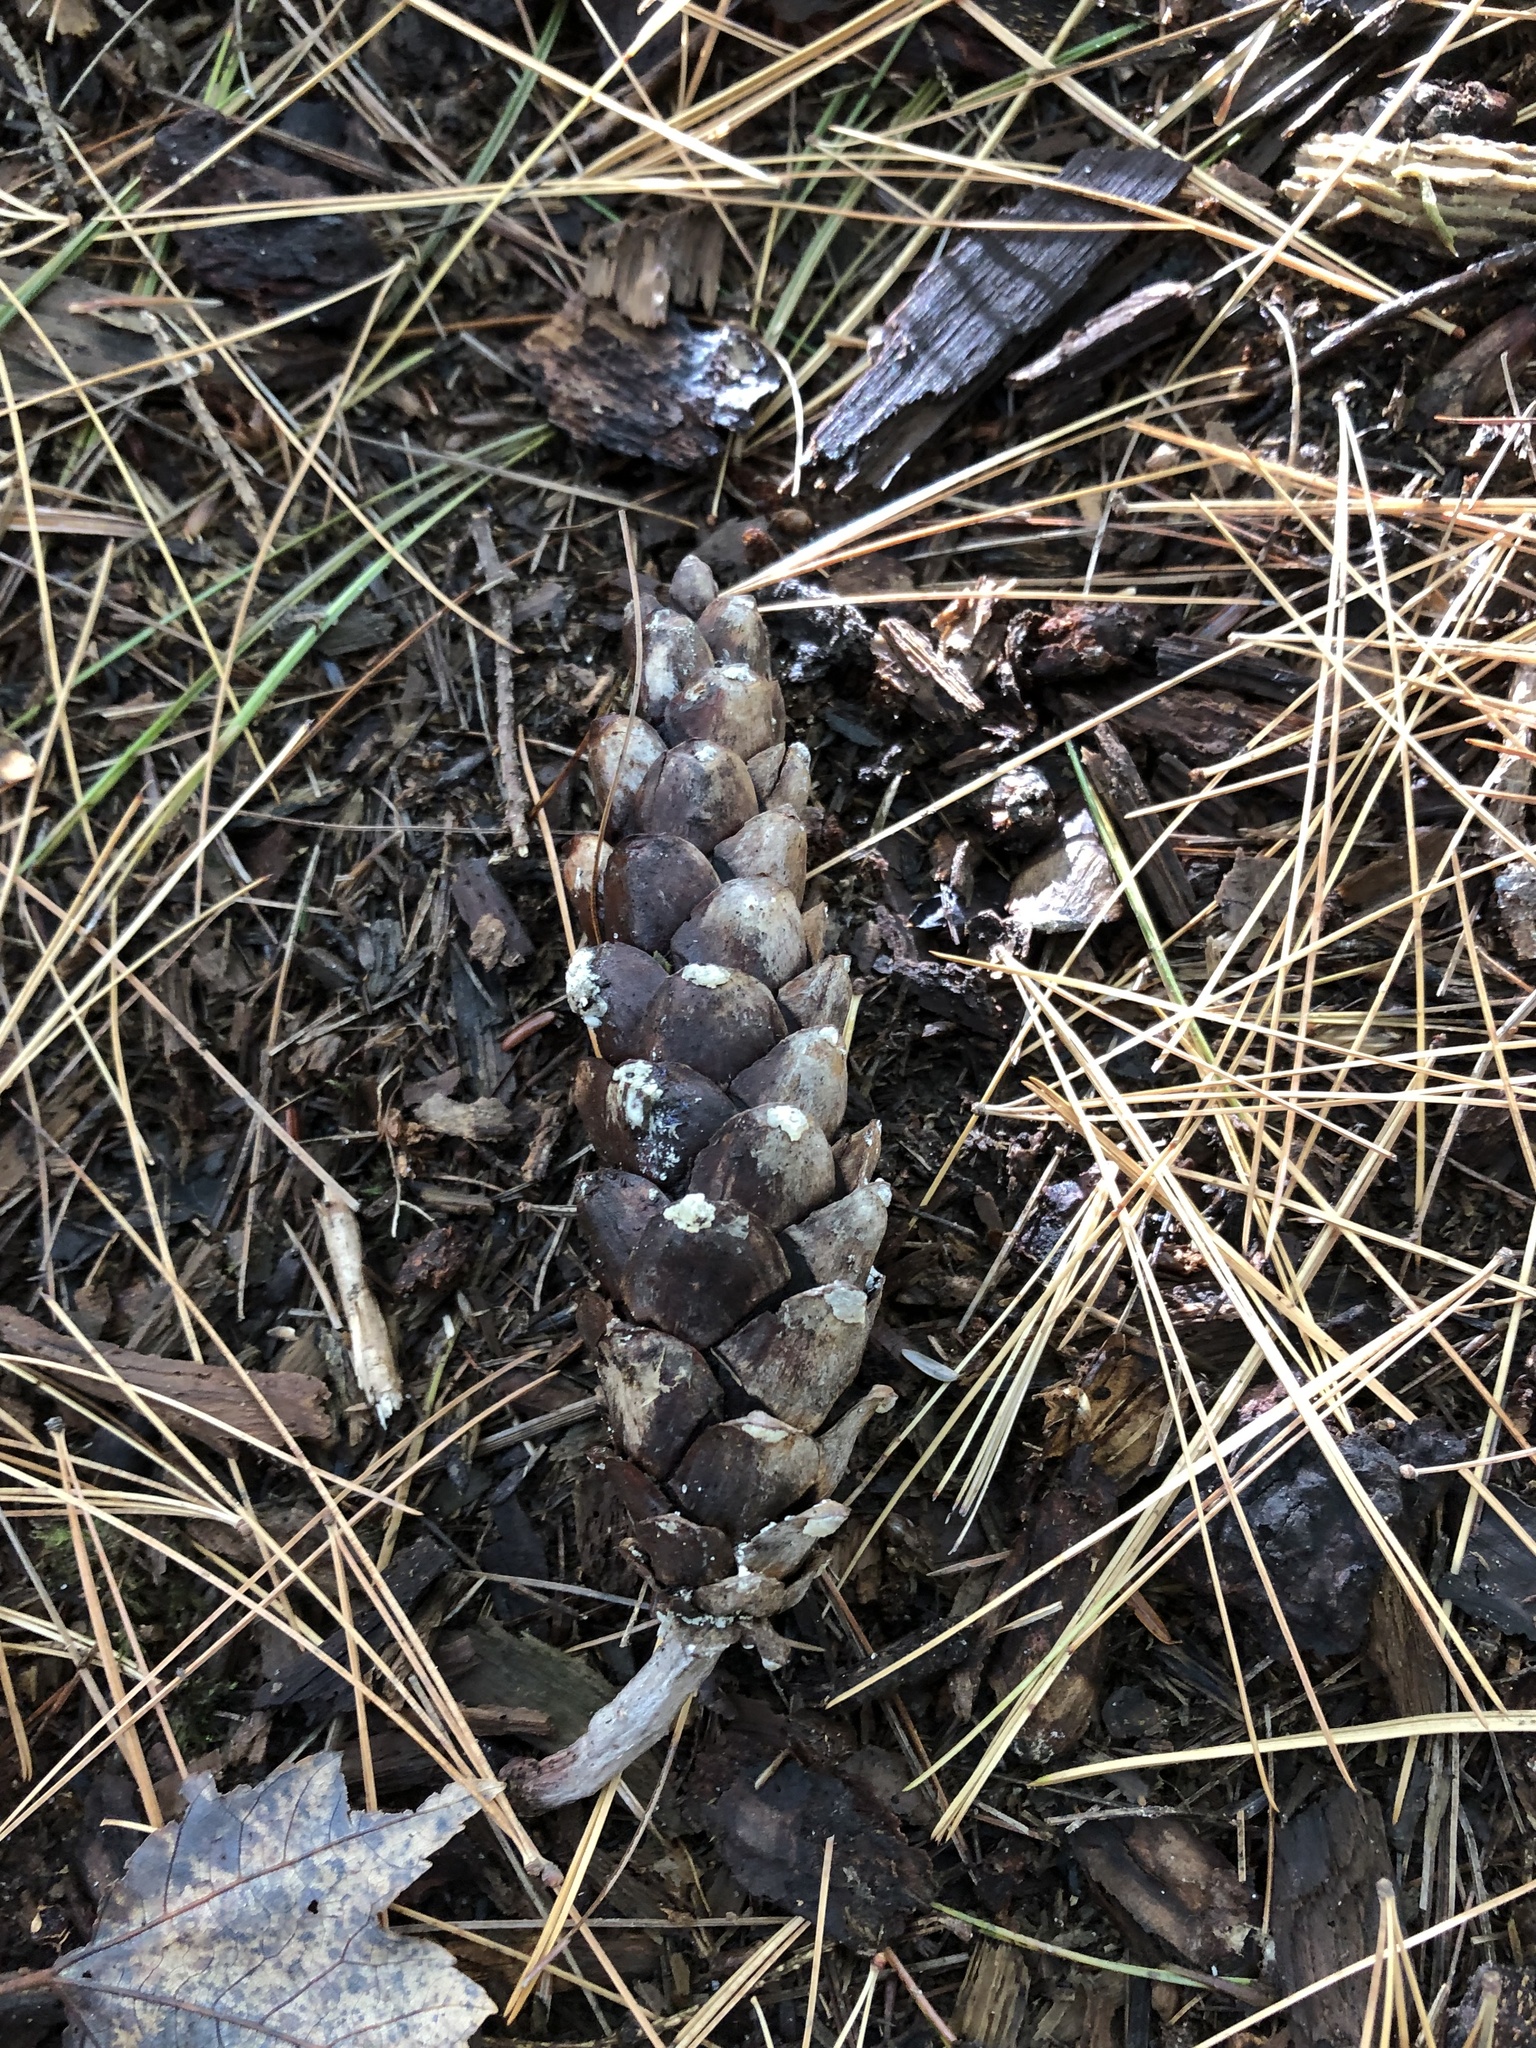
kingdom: Plantae
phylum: Tracheophyta
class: Pinopsida
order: Pinales
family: Pinaceae
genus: Pinus
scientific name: Pinus strobus
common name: Weymouth pine
